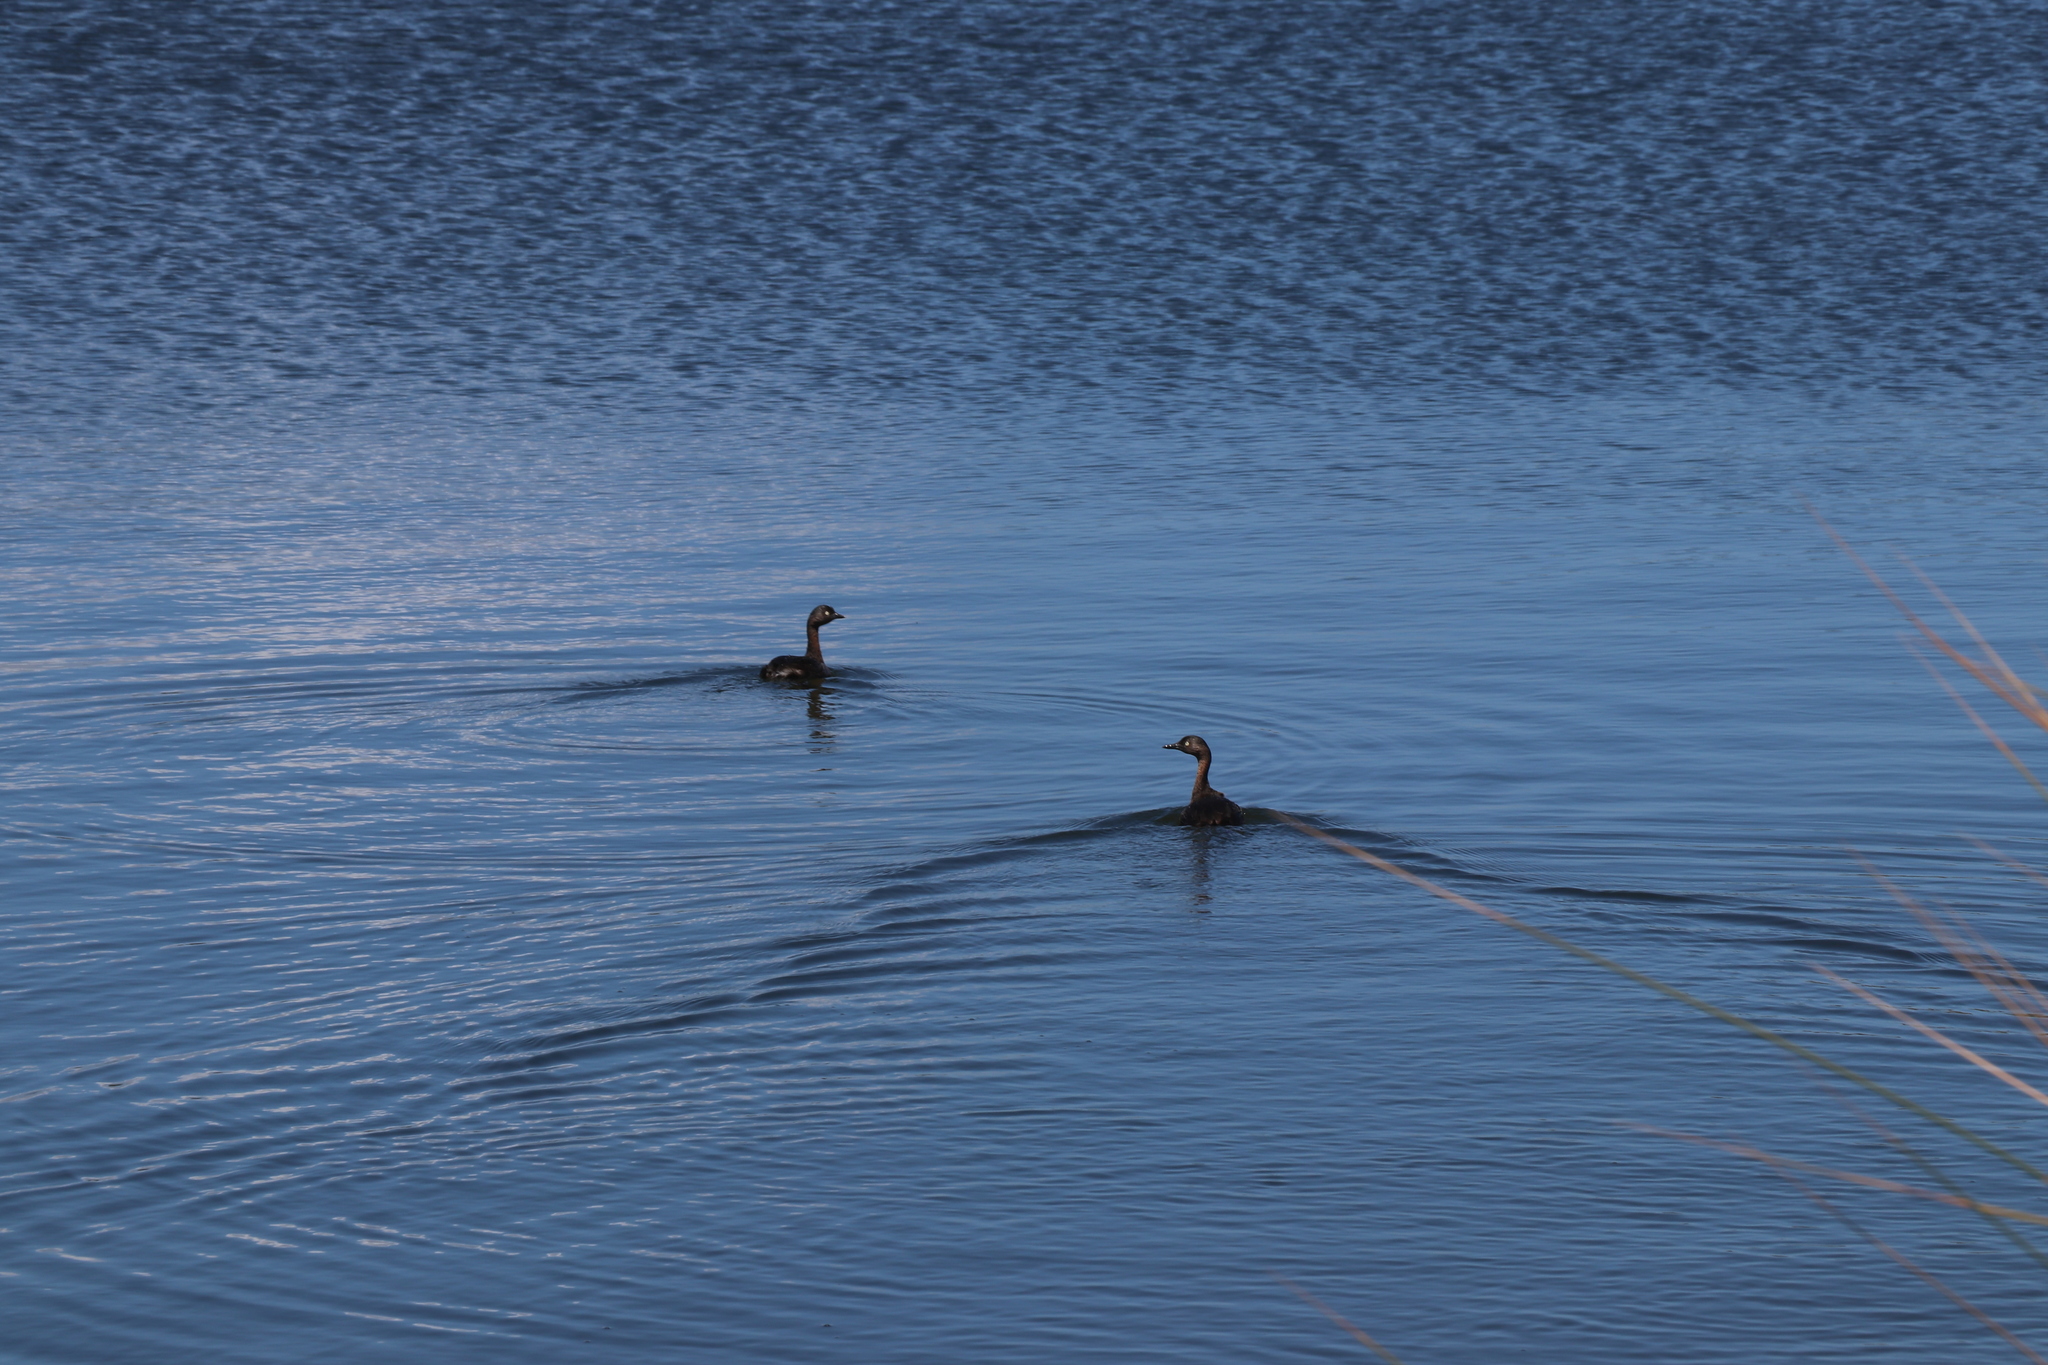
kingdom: Animalia
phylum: Chordata
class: Aves
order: Podicipediformes
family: Podicipedidae
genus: Poliocephalus
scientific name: Poliocephalus rufopectus
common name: New zealand grebe
